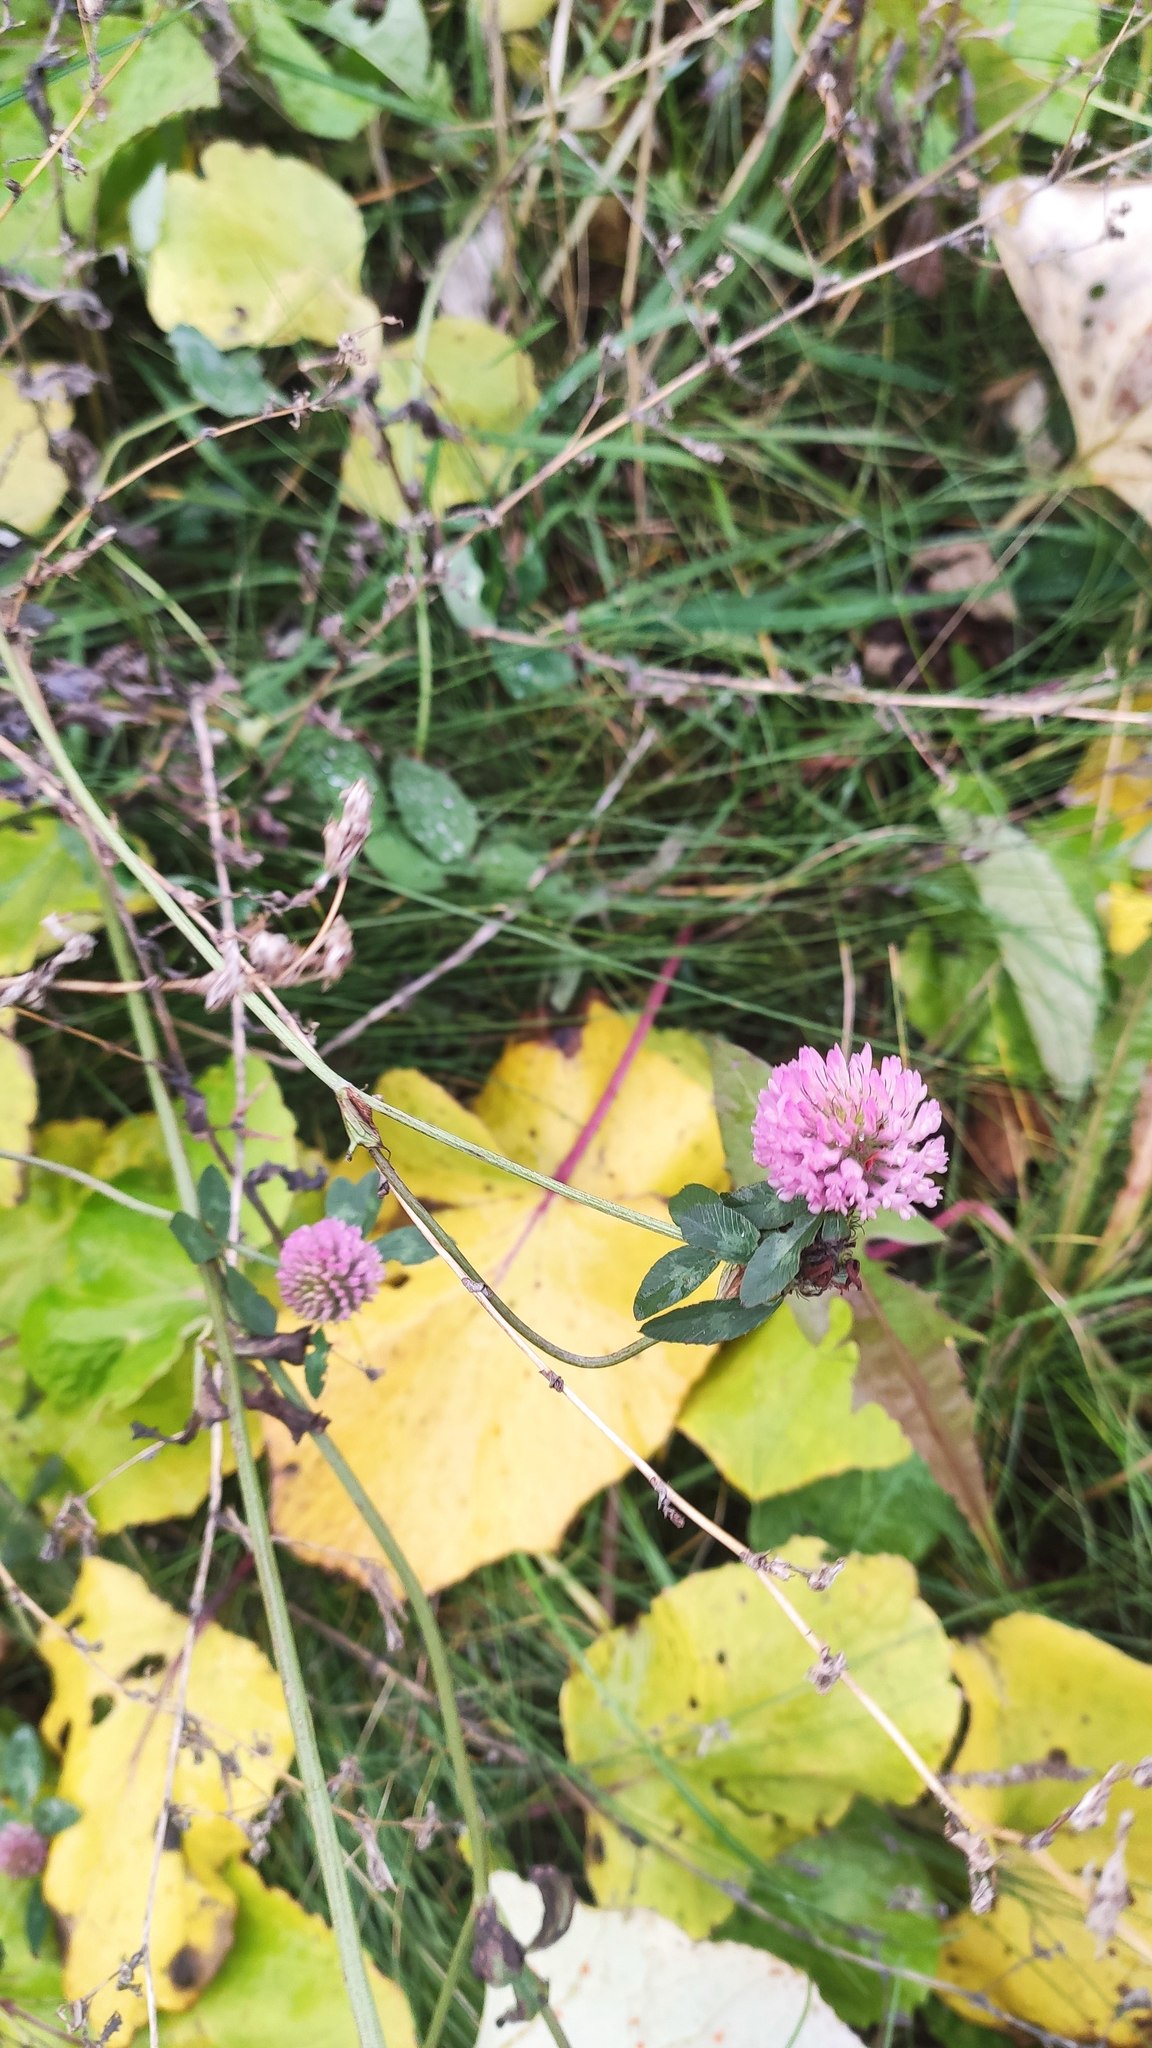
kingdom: Plantae
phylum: Tracheophyta
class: Magnoliopsida
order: Fabales
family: Fabaceae
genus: Trifolium
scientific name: Trifolium pratense
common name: Red clover
